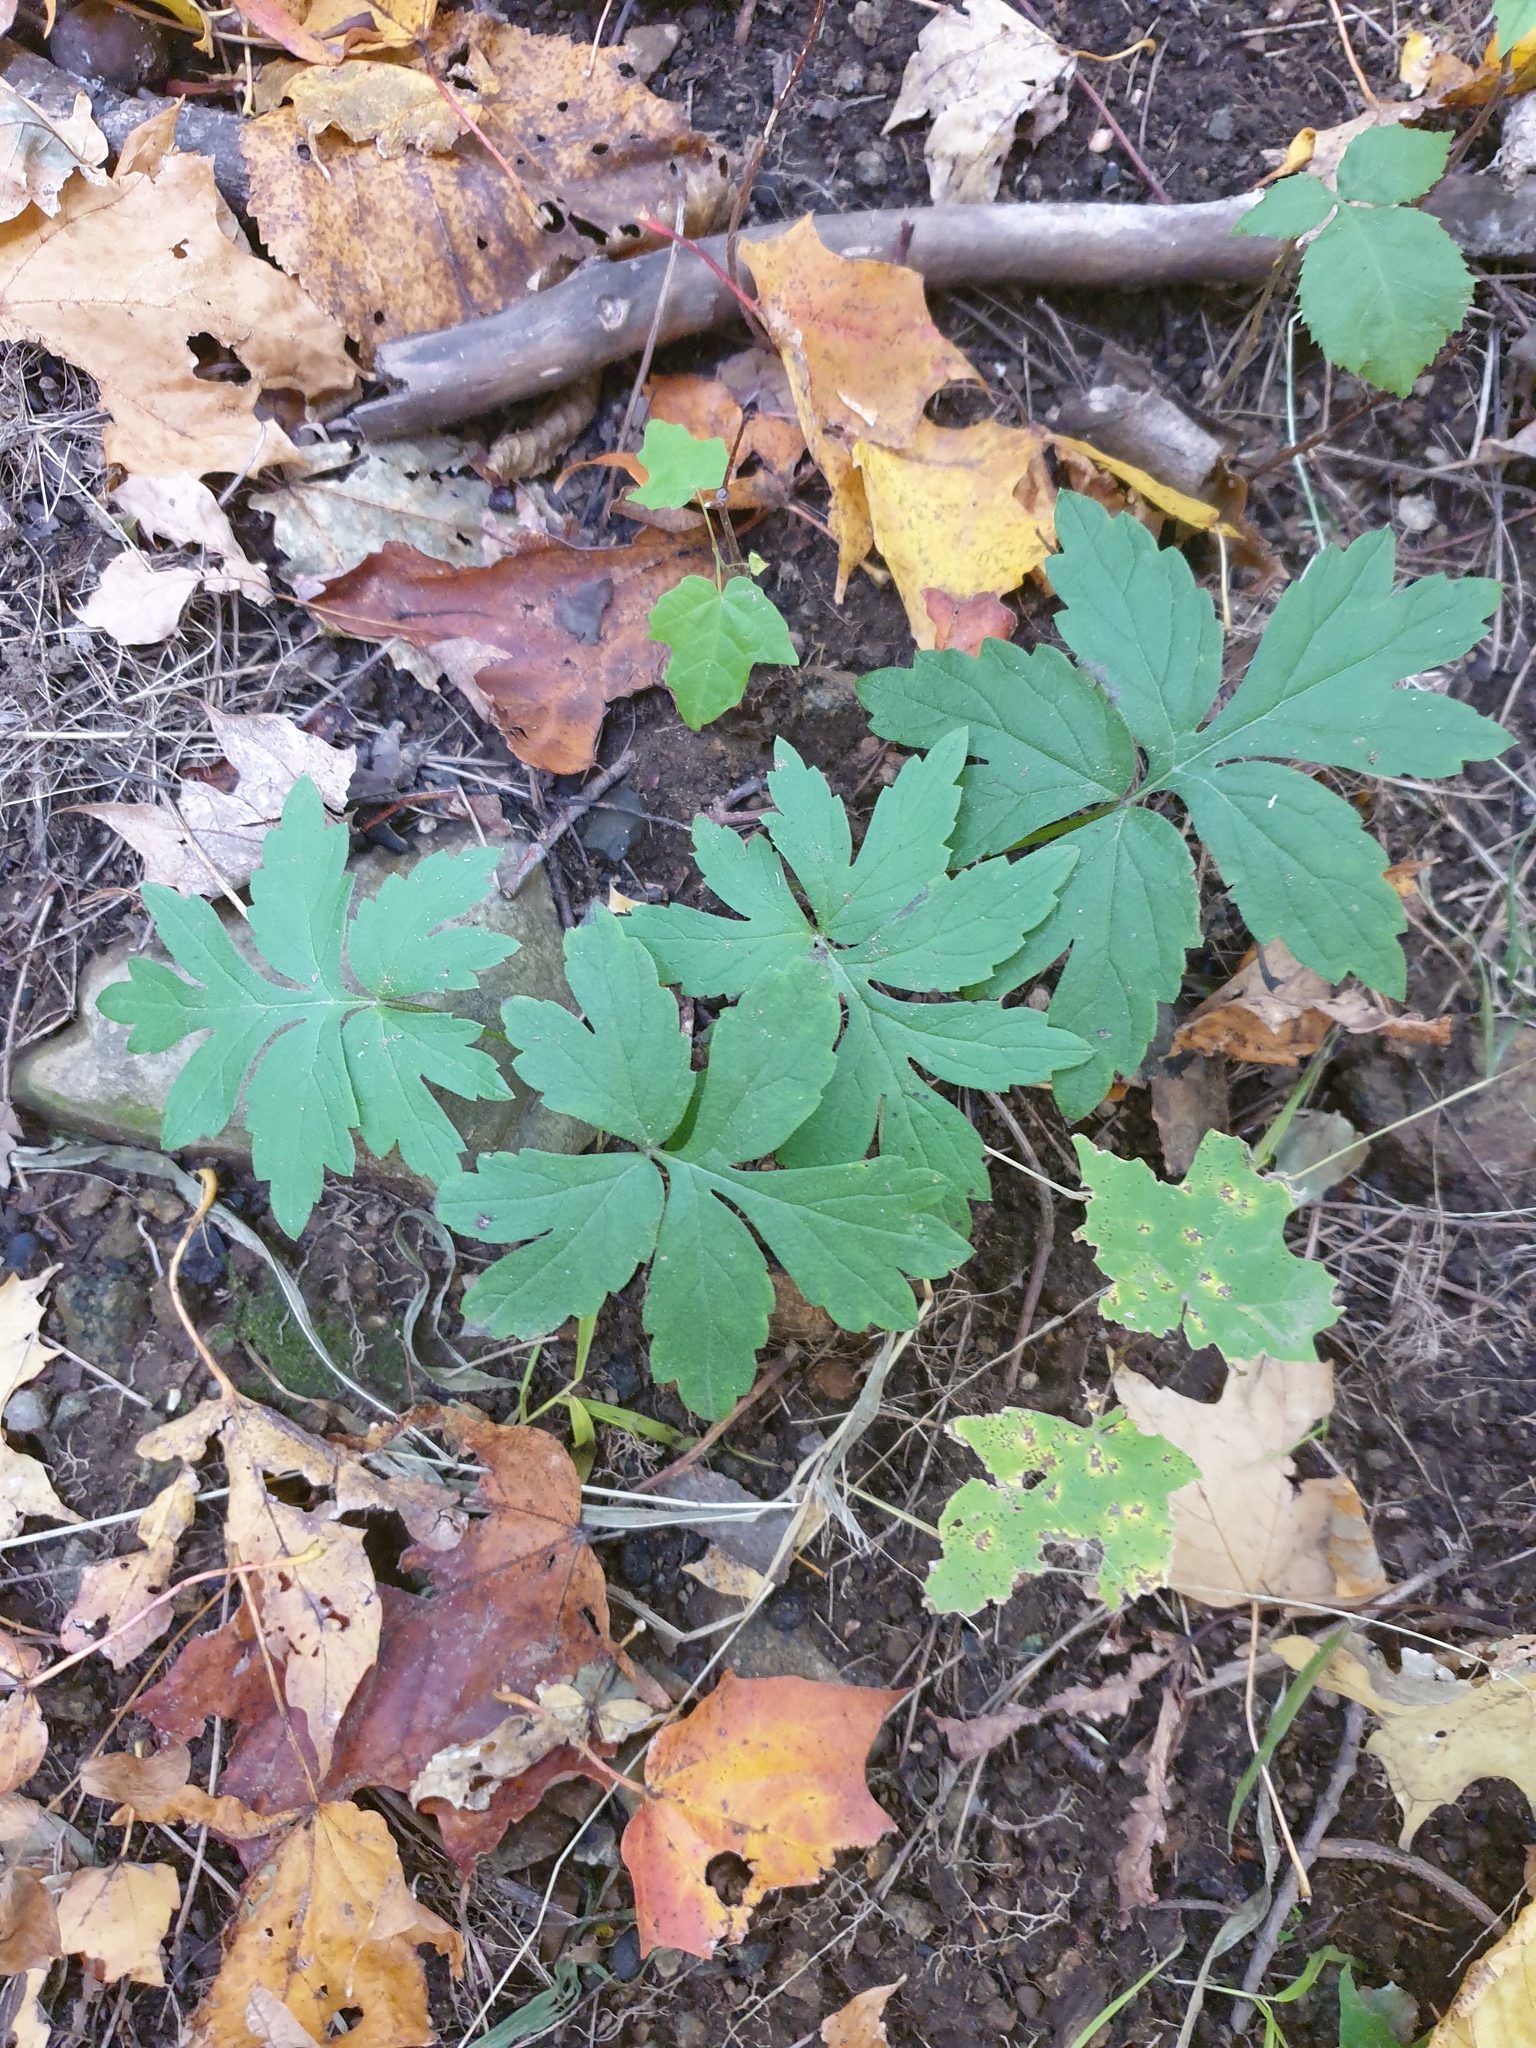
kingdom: Plantae
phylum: Tracheophyta
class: Magnoliopsida
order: Boraginales
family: Hydrophyllaceae
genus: Hydrophyllum
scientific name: Hydrophyllum virginianum
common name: Virginia waterleaf
